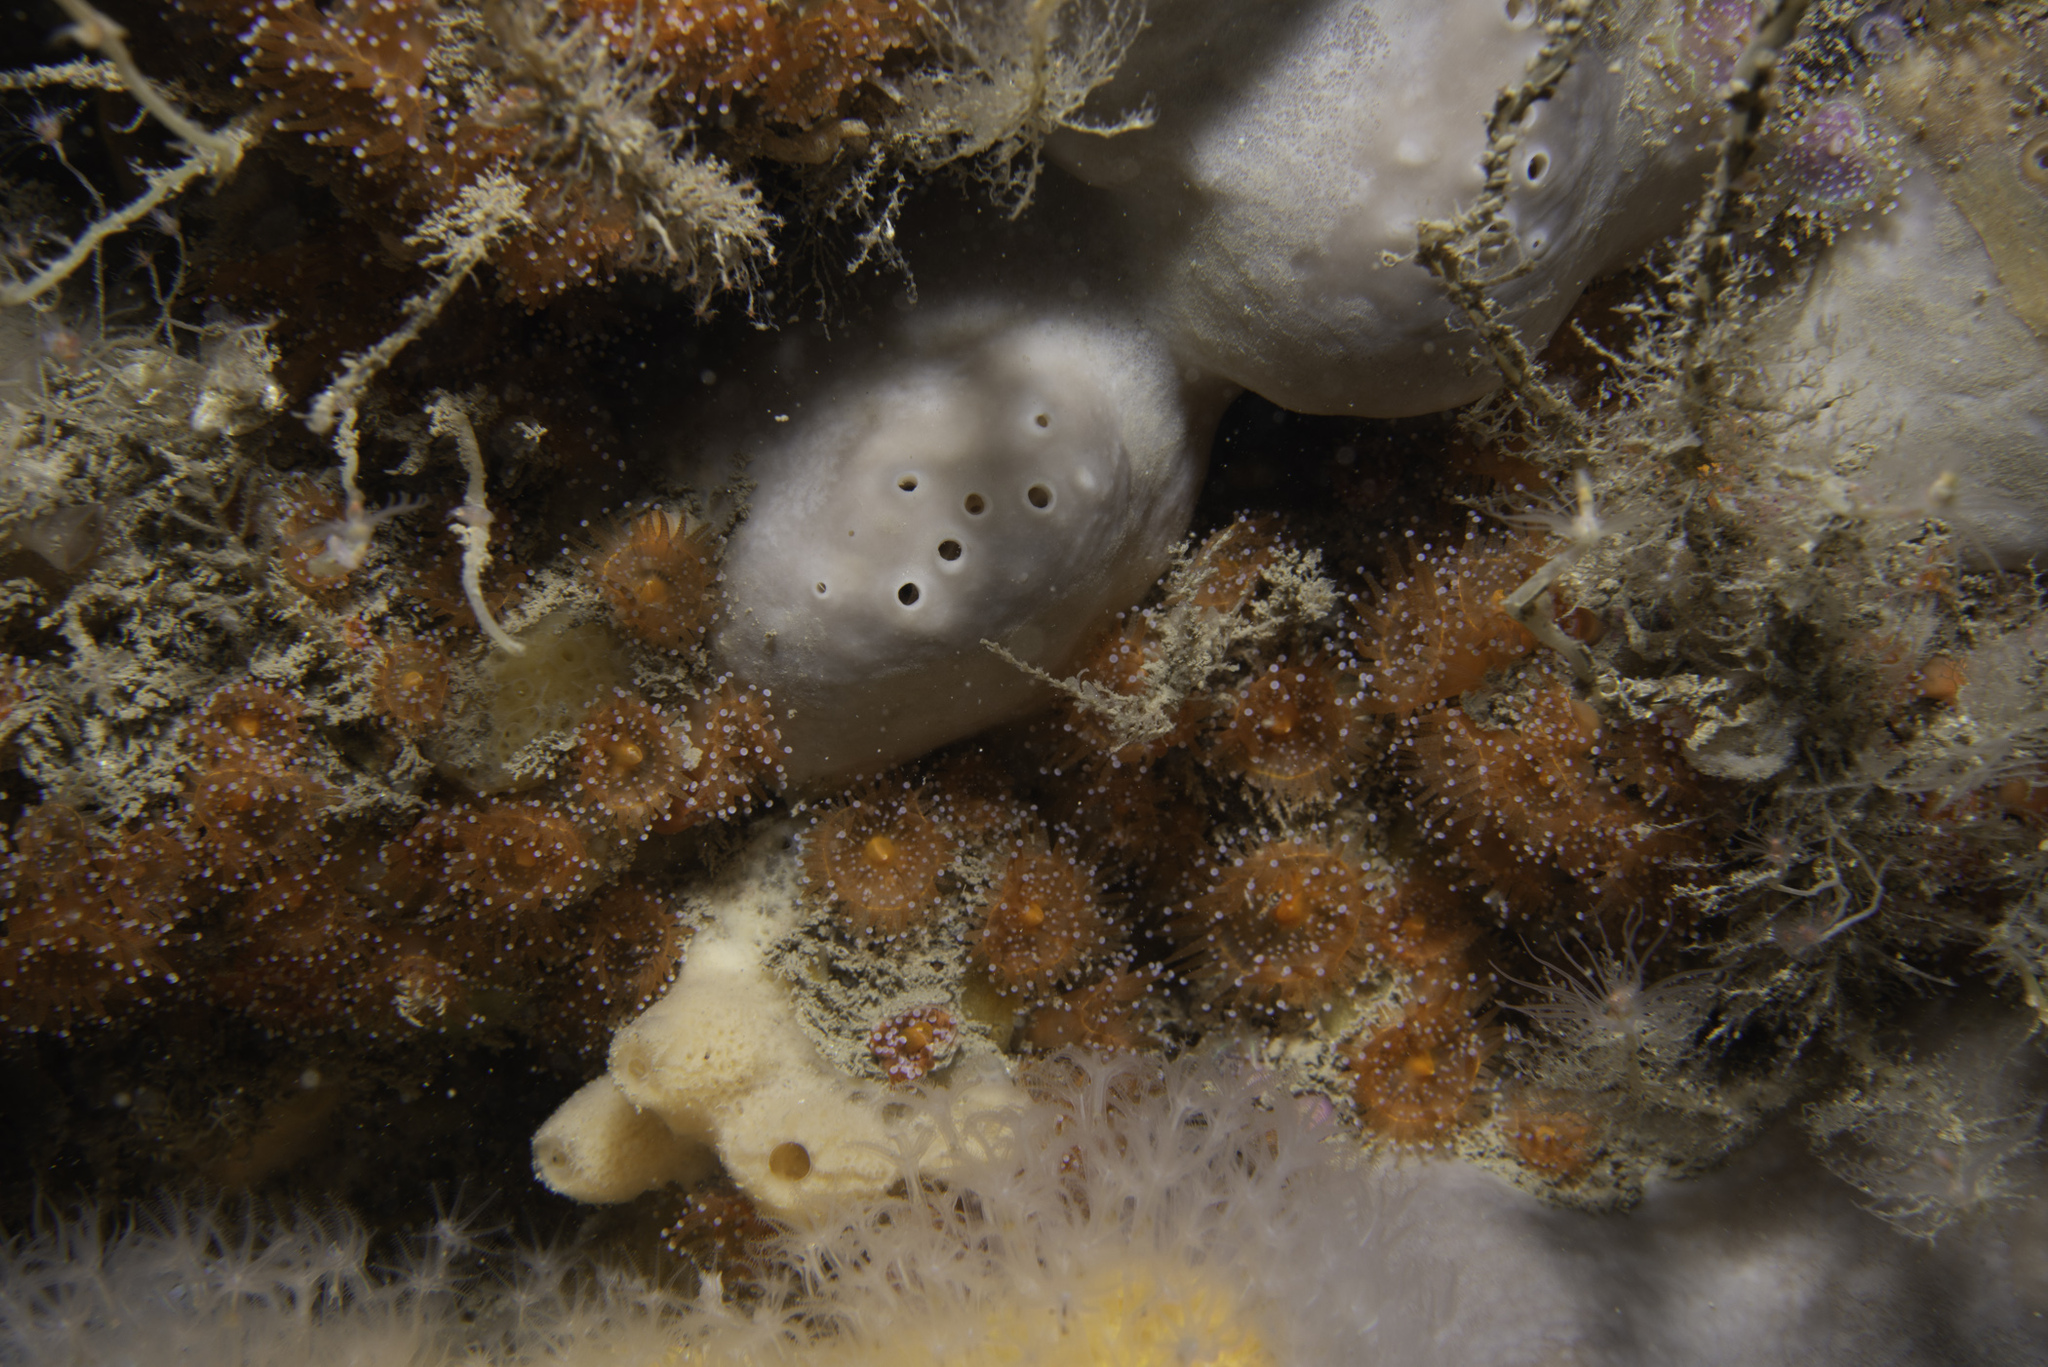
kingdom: Animalia
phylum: Porifera
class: Demospongiae
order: Tetractinellida
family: Geodiidae
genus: Pachymatisma
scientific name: Pachymatisma johnstonia
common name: Elephant ear sponge
